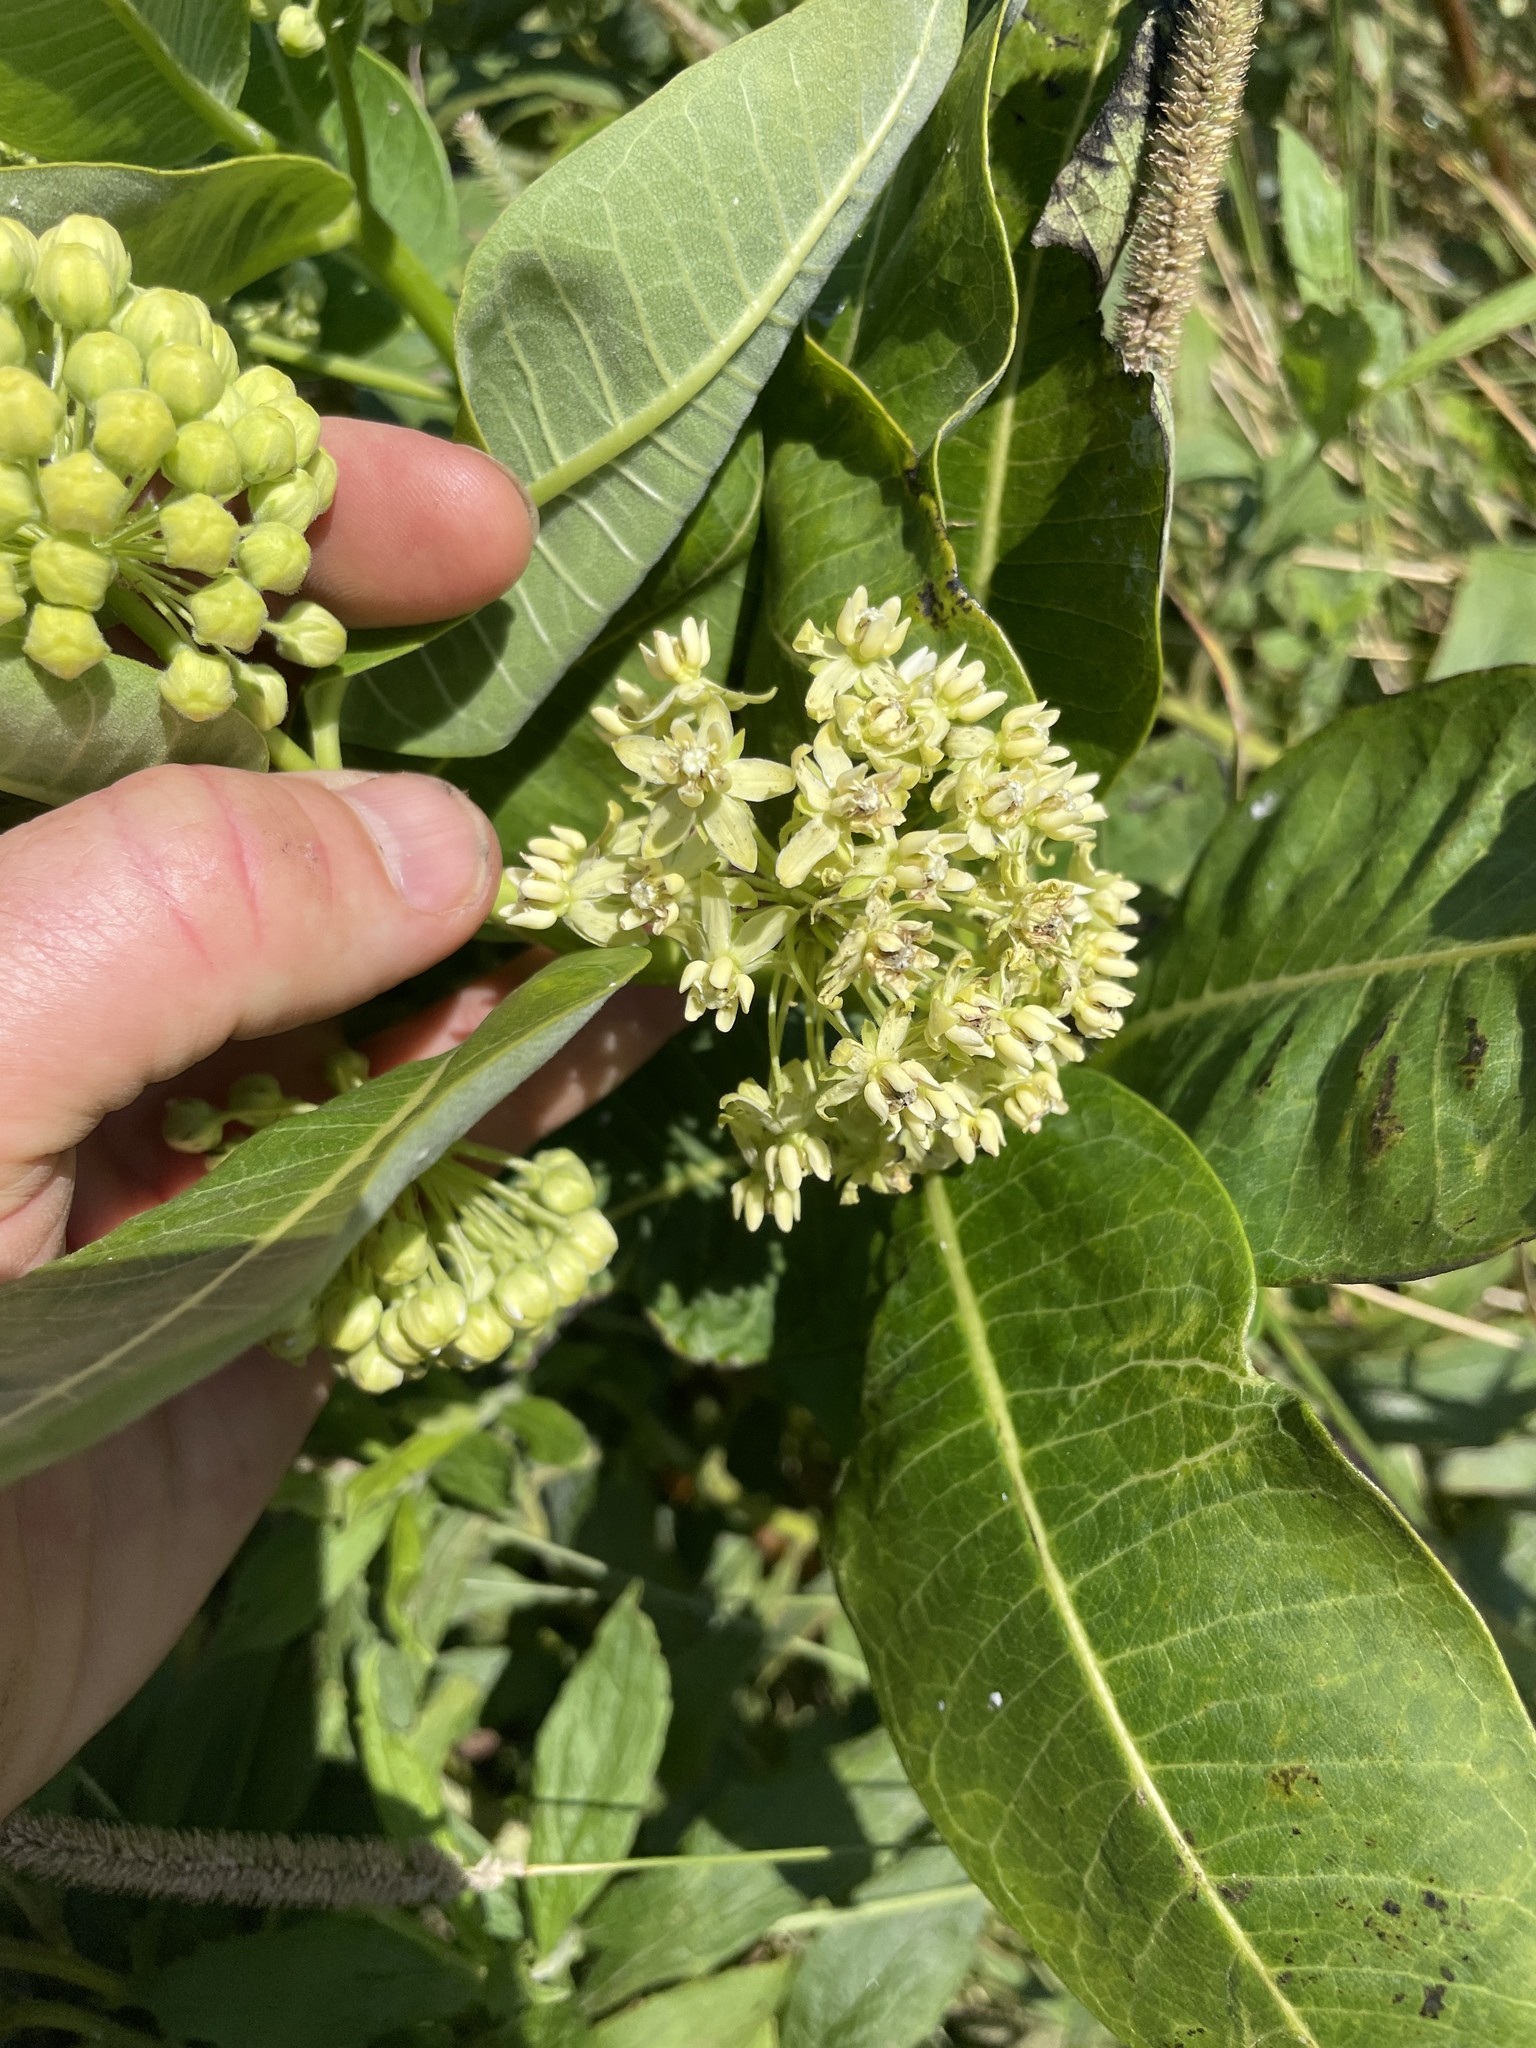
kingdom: Plantae
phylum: Tracheophyta
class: Magnoliopsida
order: Gentianales
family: Apocynaceae
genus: Asclepias
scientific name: Asclepias syriaca
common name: Common milkweed
